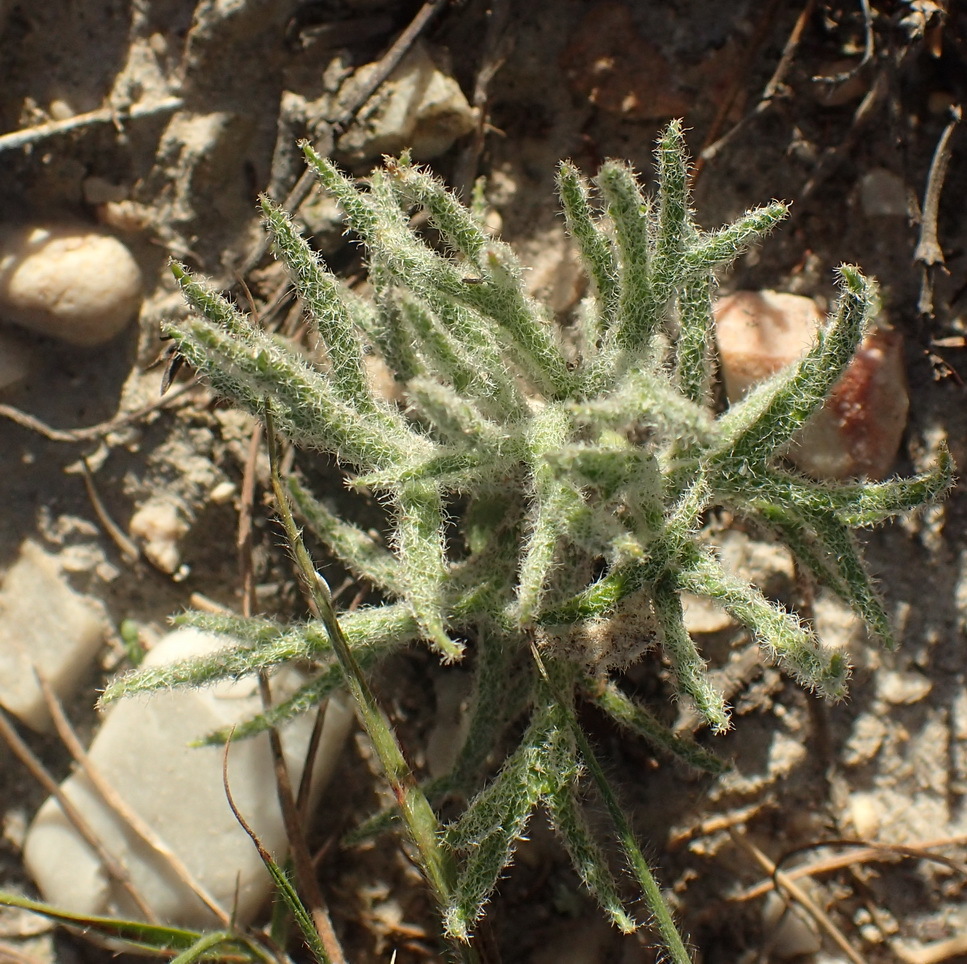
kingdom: Plantae
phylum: Tracheophyta
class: Liliopsida
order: Asparagales
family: Asparagaceae
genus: Eriospermum
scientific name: Eriospermum dregei
